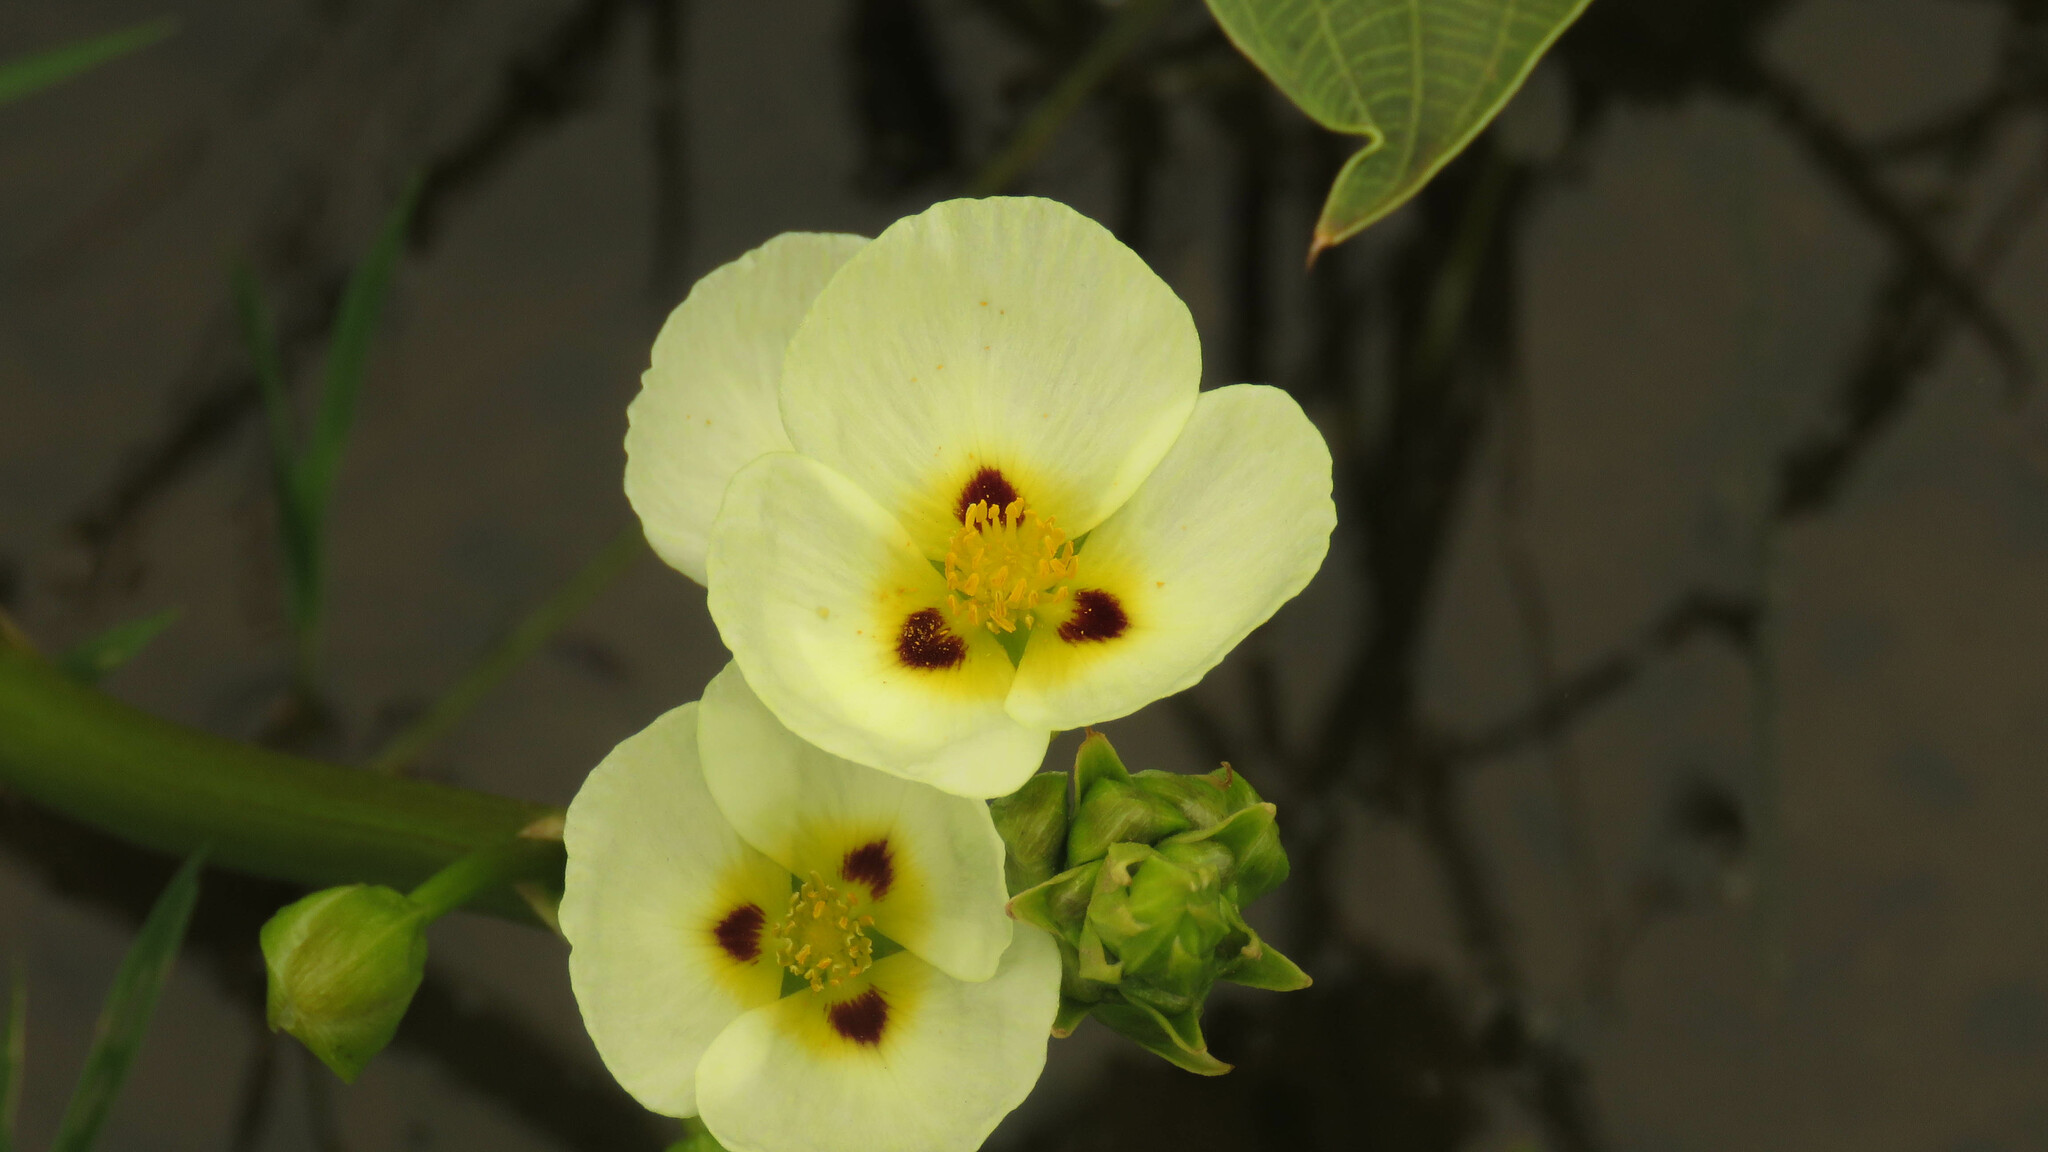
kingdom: Plantae
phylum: Tracheophyta
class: Liliopsida
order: Alismatales
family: Alismataceae
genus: Sagittaria
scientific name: Sagittaria montevidensis
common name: Giant arrowhead
